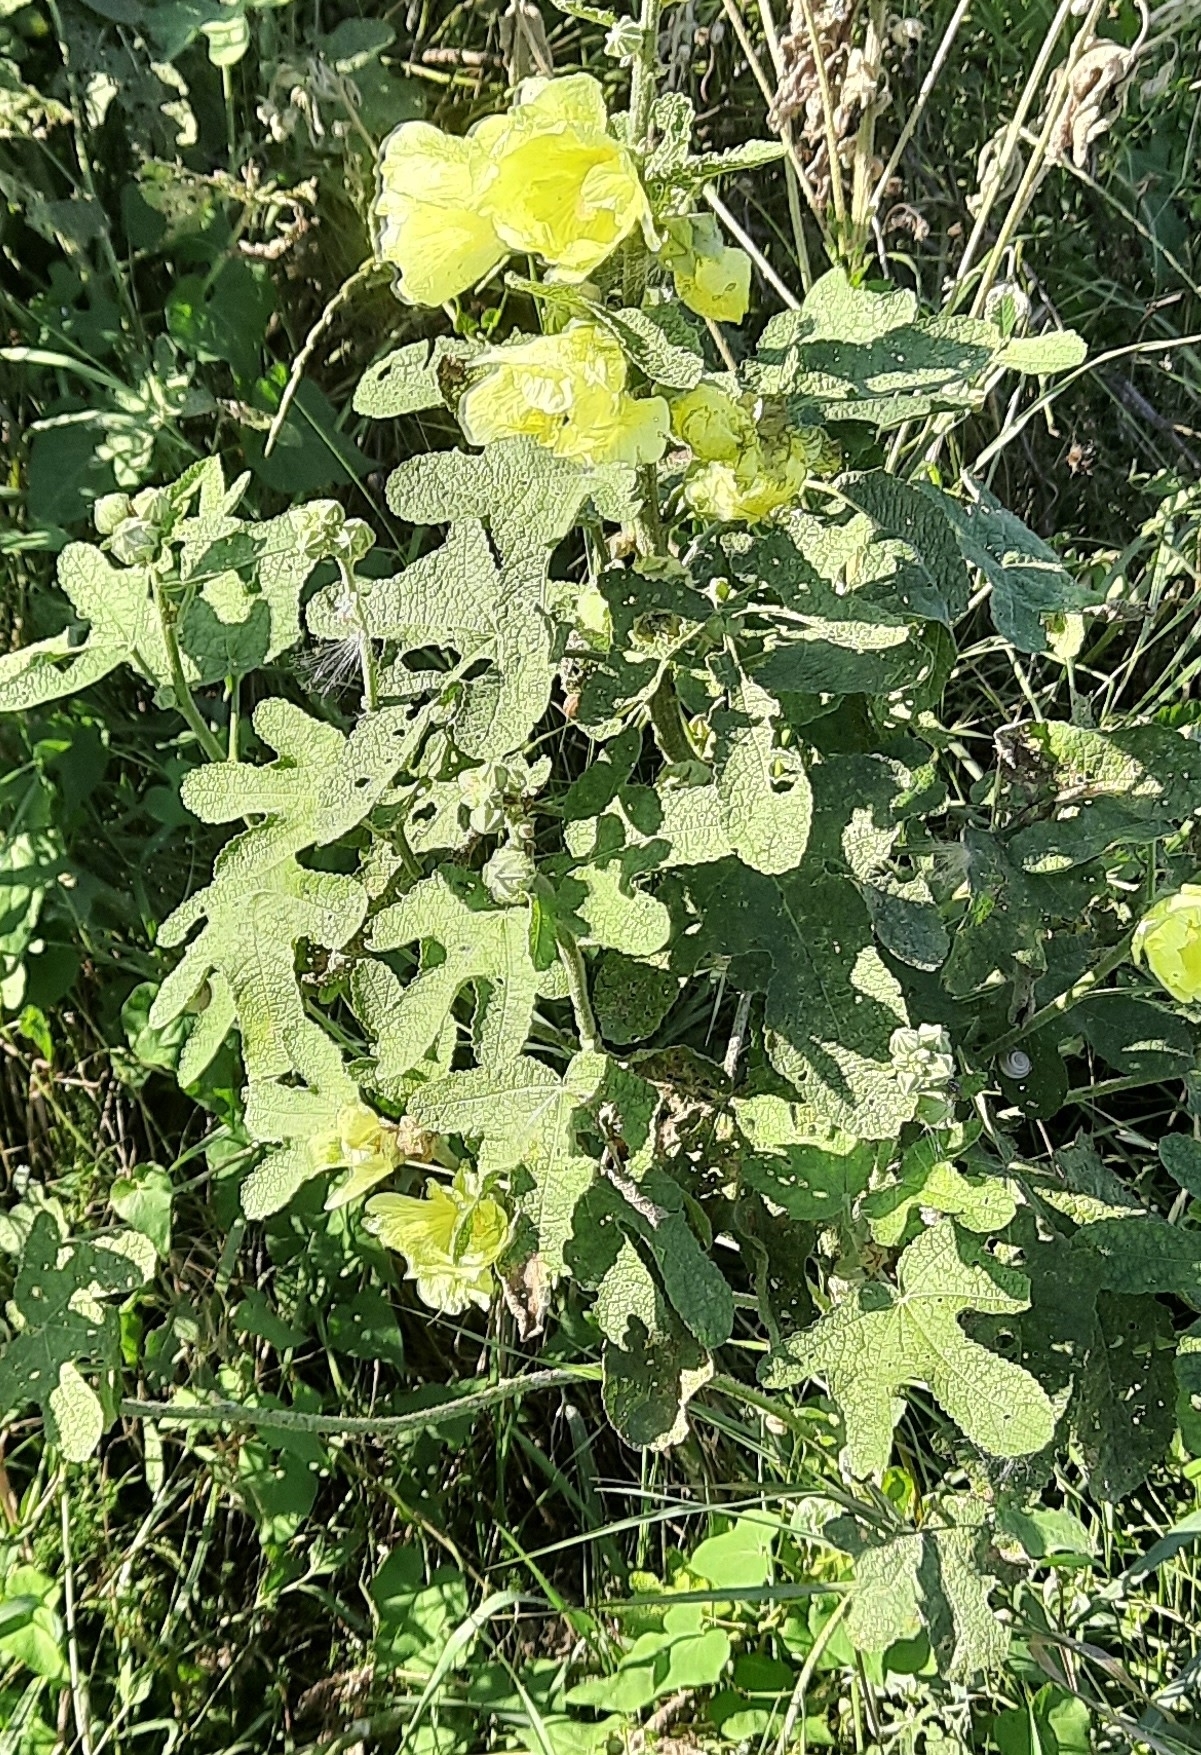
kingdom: Plantae
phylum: Tracheophyta
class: Magnoliopsida
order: Malvales
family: Malvaceae
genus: Alcea
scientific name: Alcea rugosa
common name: Russian hollyhock
